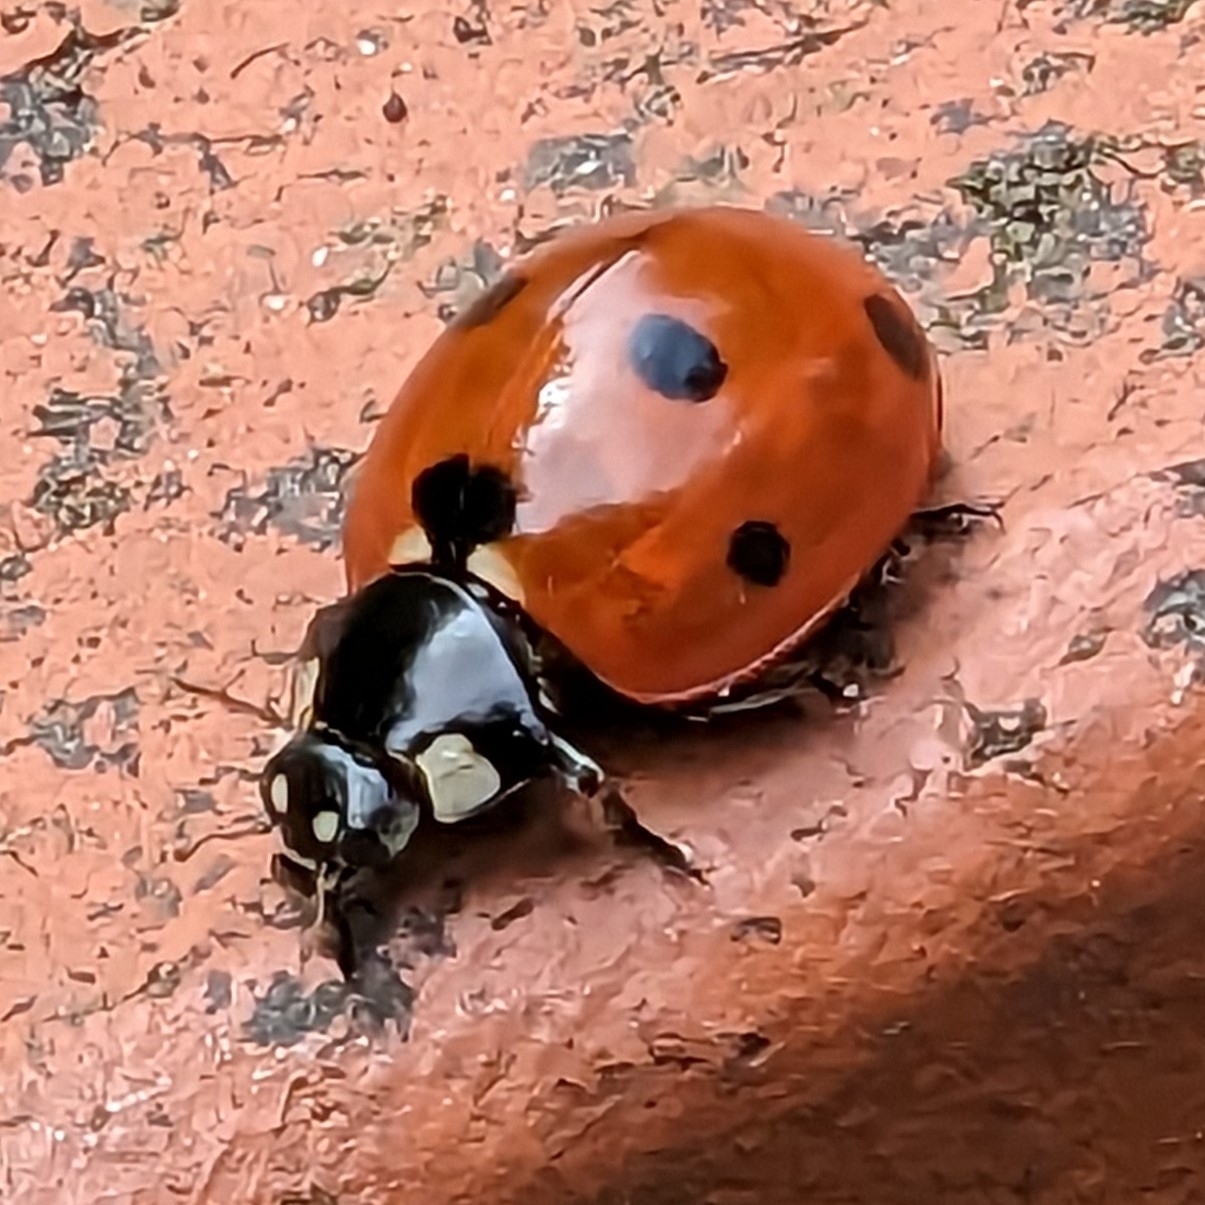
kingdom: Animalia
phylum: Arthropoda
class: Insecta
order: Coleoptera
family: Coccinellidae
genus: Coccinella
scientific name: Coccinella septempunctata
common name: Sevenspotted lady beetle
